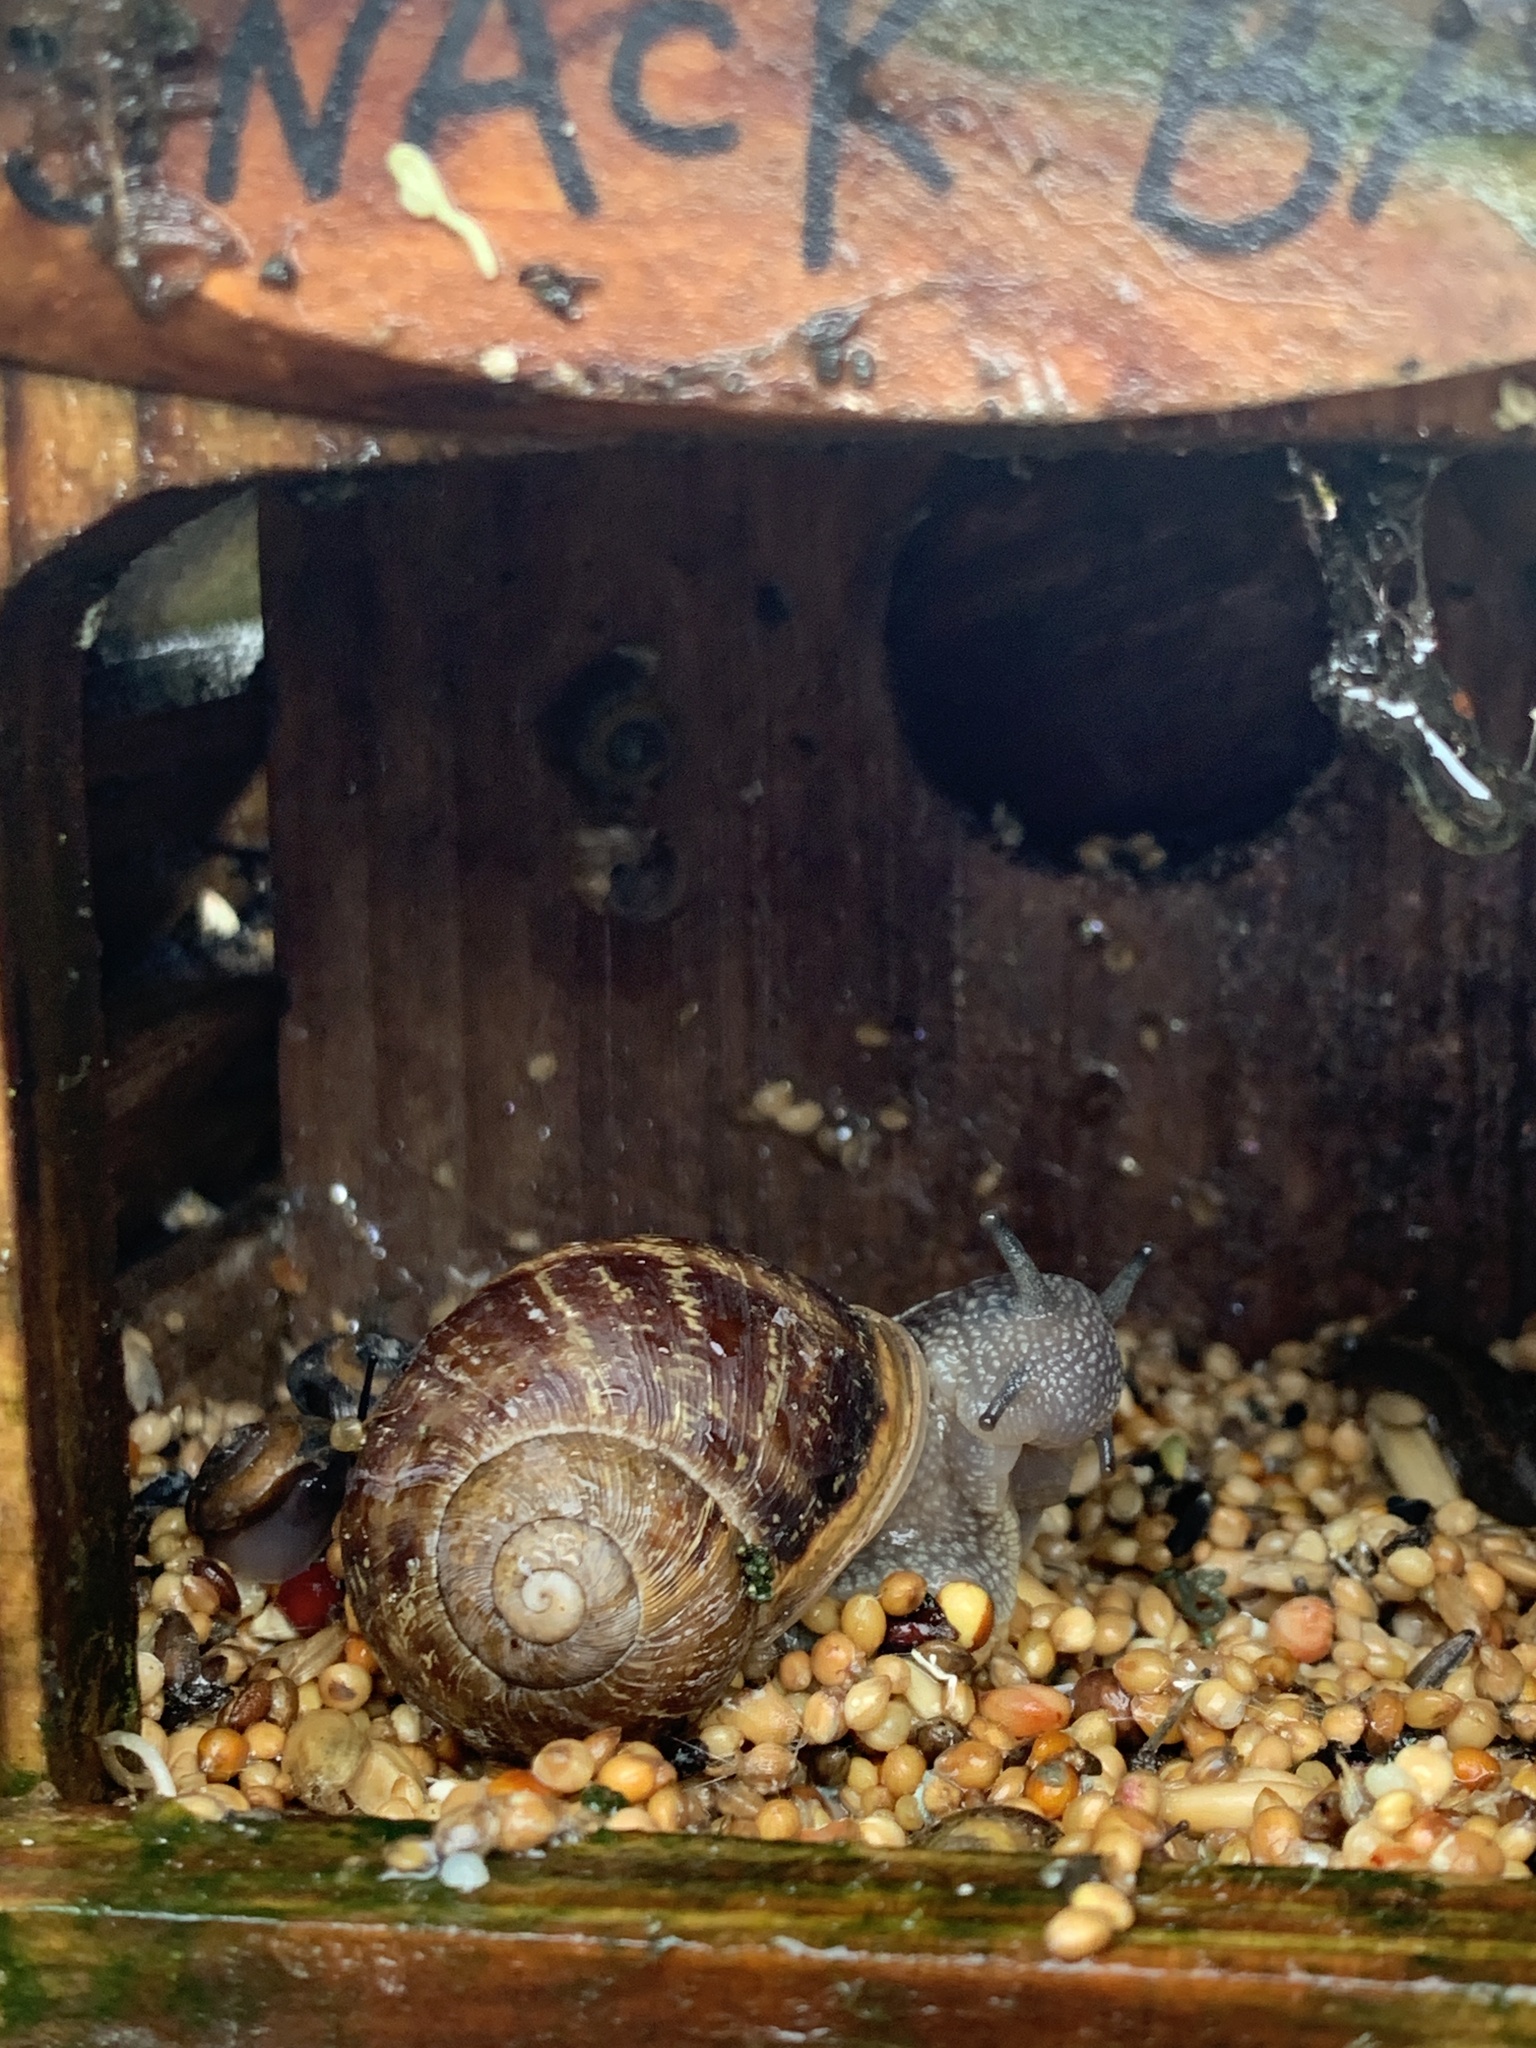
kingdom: Animalia
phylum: Mollusca
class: Gastropoda
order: Stylommatophora
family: Helicidae
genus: Cornu
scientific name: Cornu aspersum
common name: Brown garden snail
